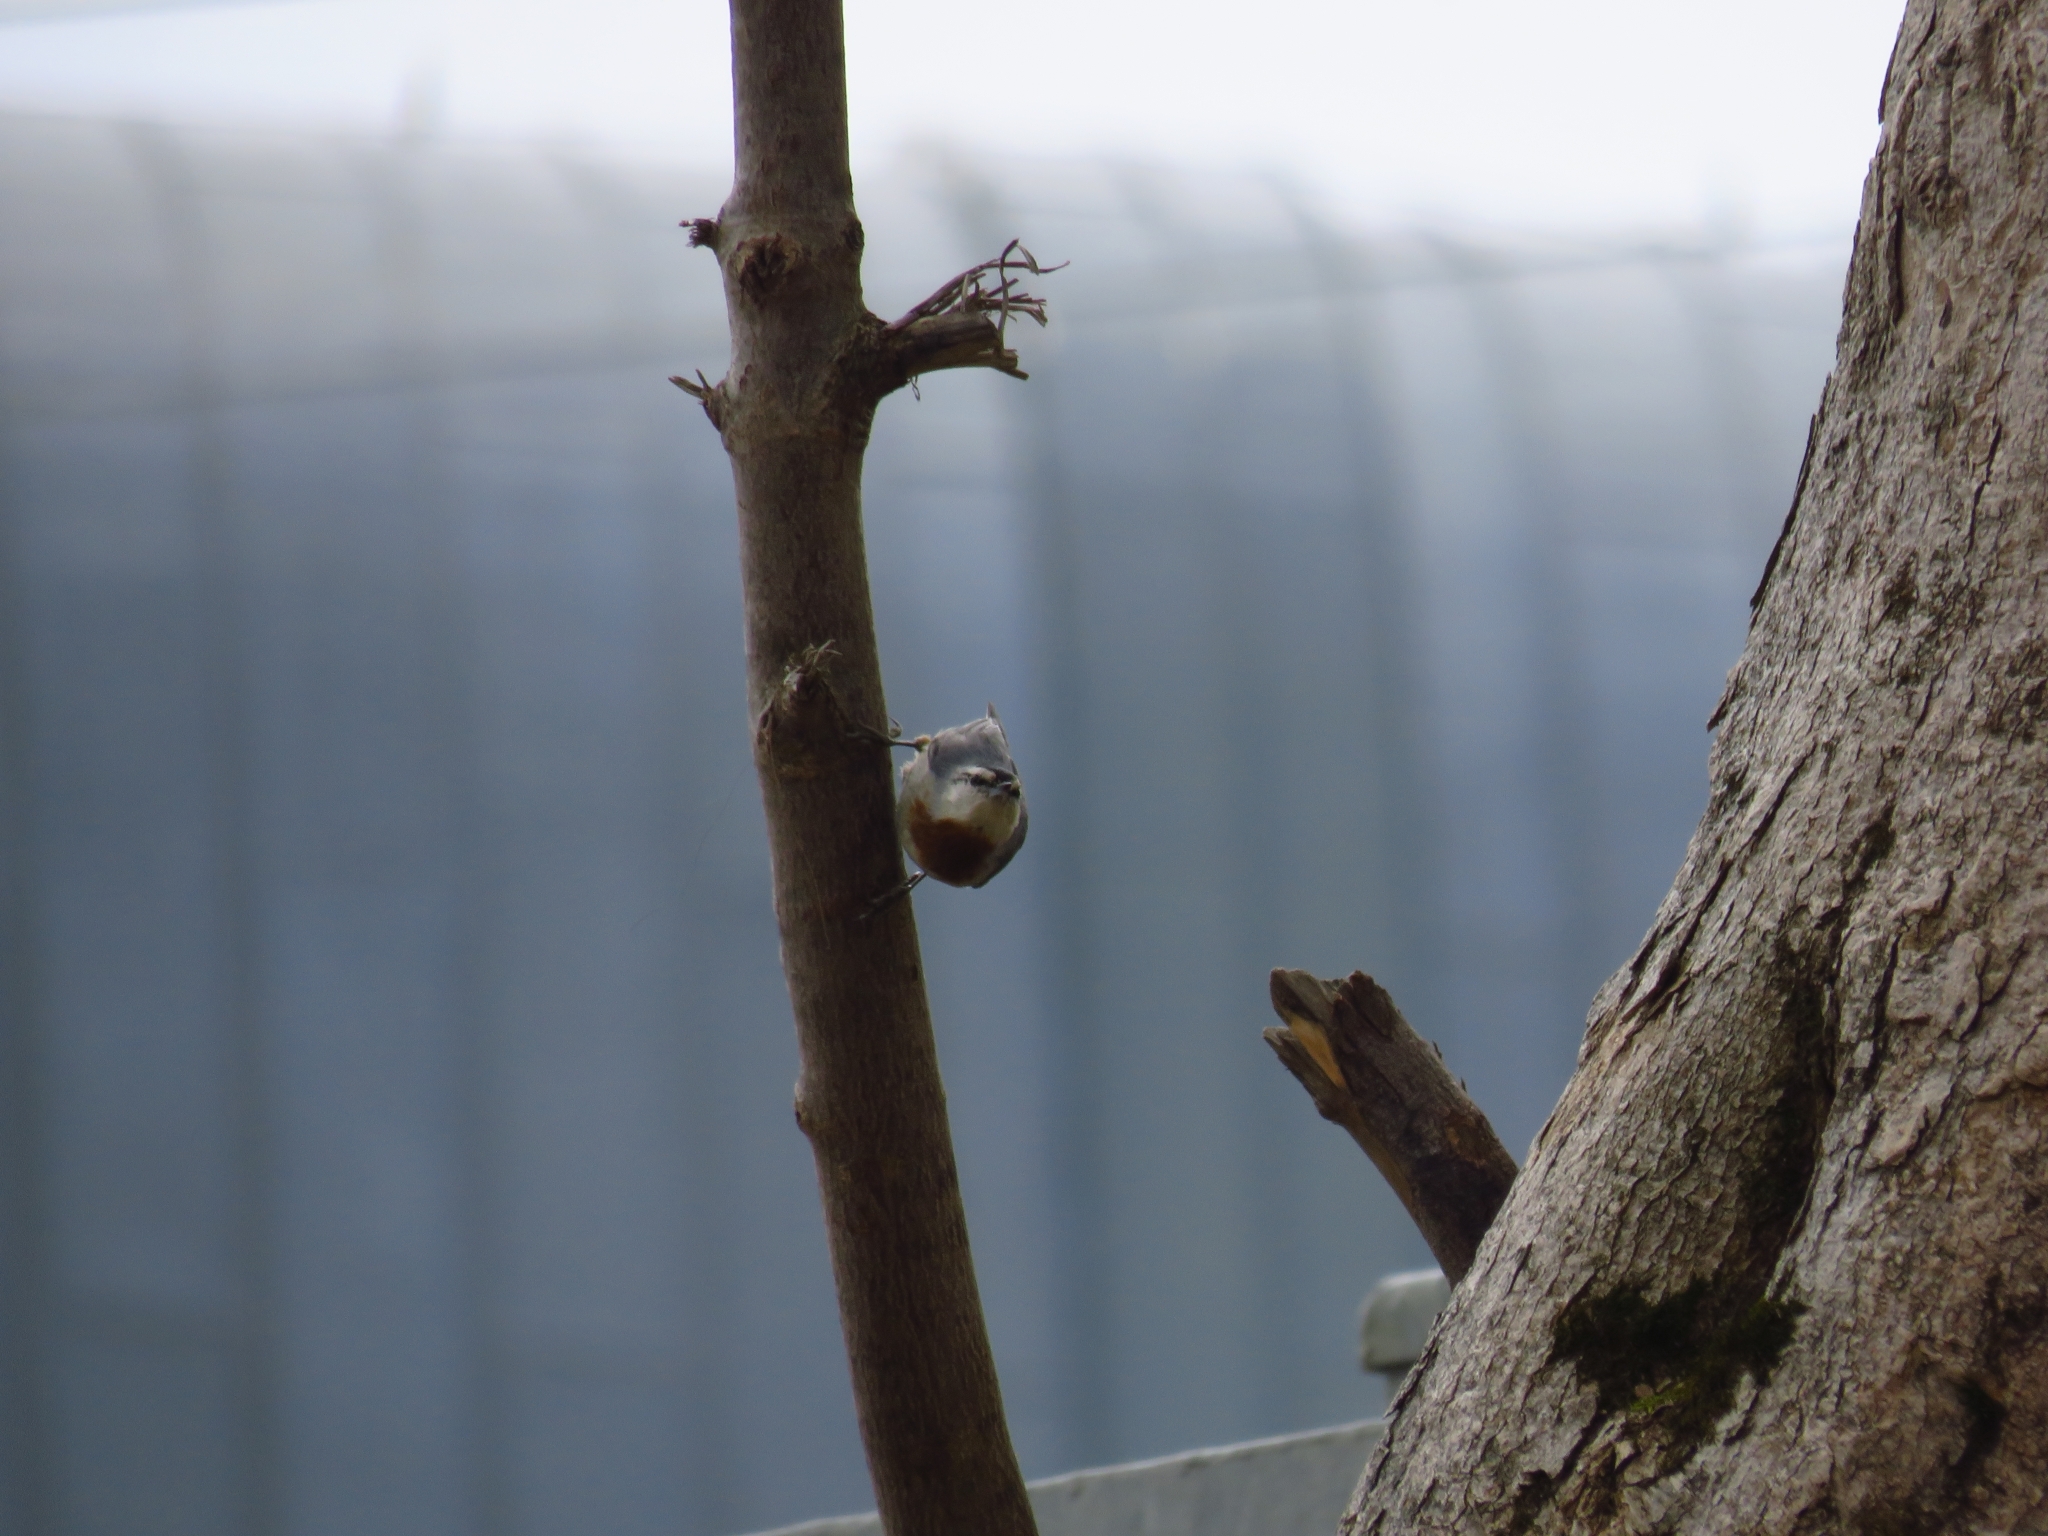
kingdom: Animalia
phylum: Chordata
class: Aves
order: Passeriformes
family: Sittidae
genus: Sitta
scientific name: Sitta krueperi
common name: Krüper's nuthatch
